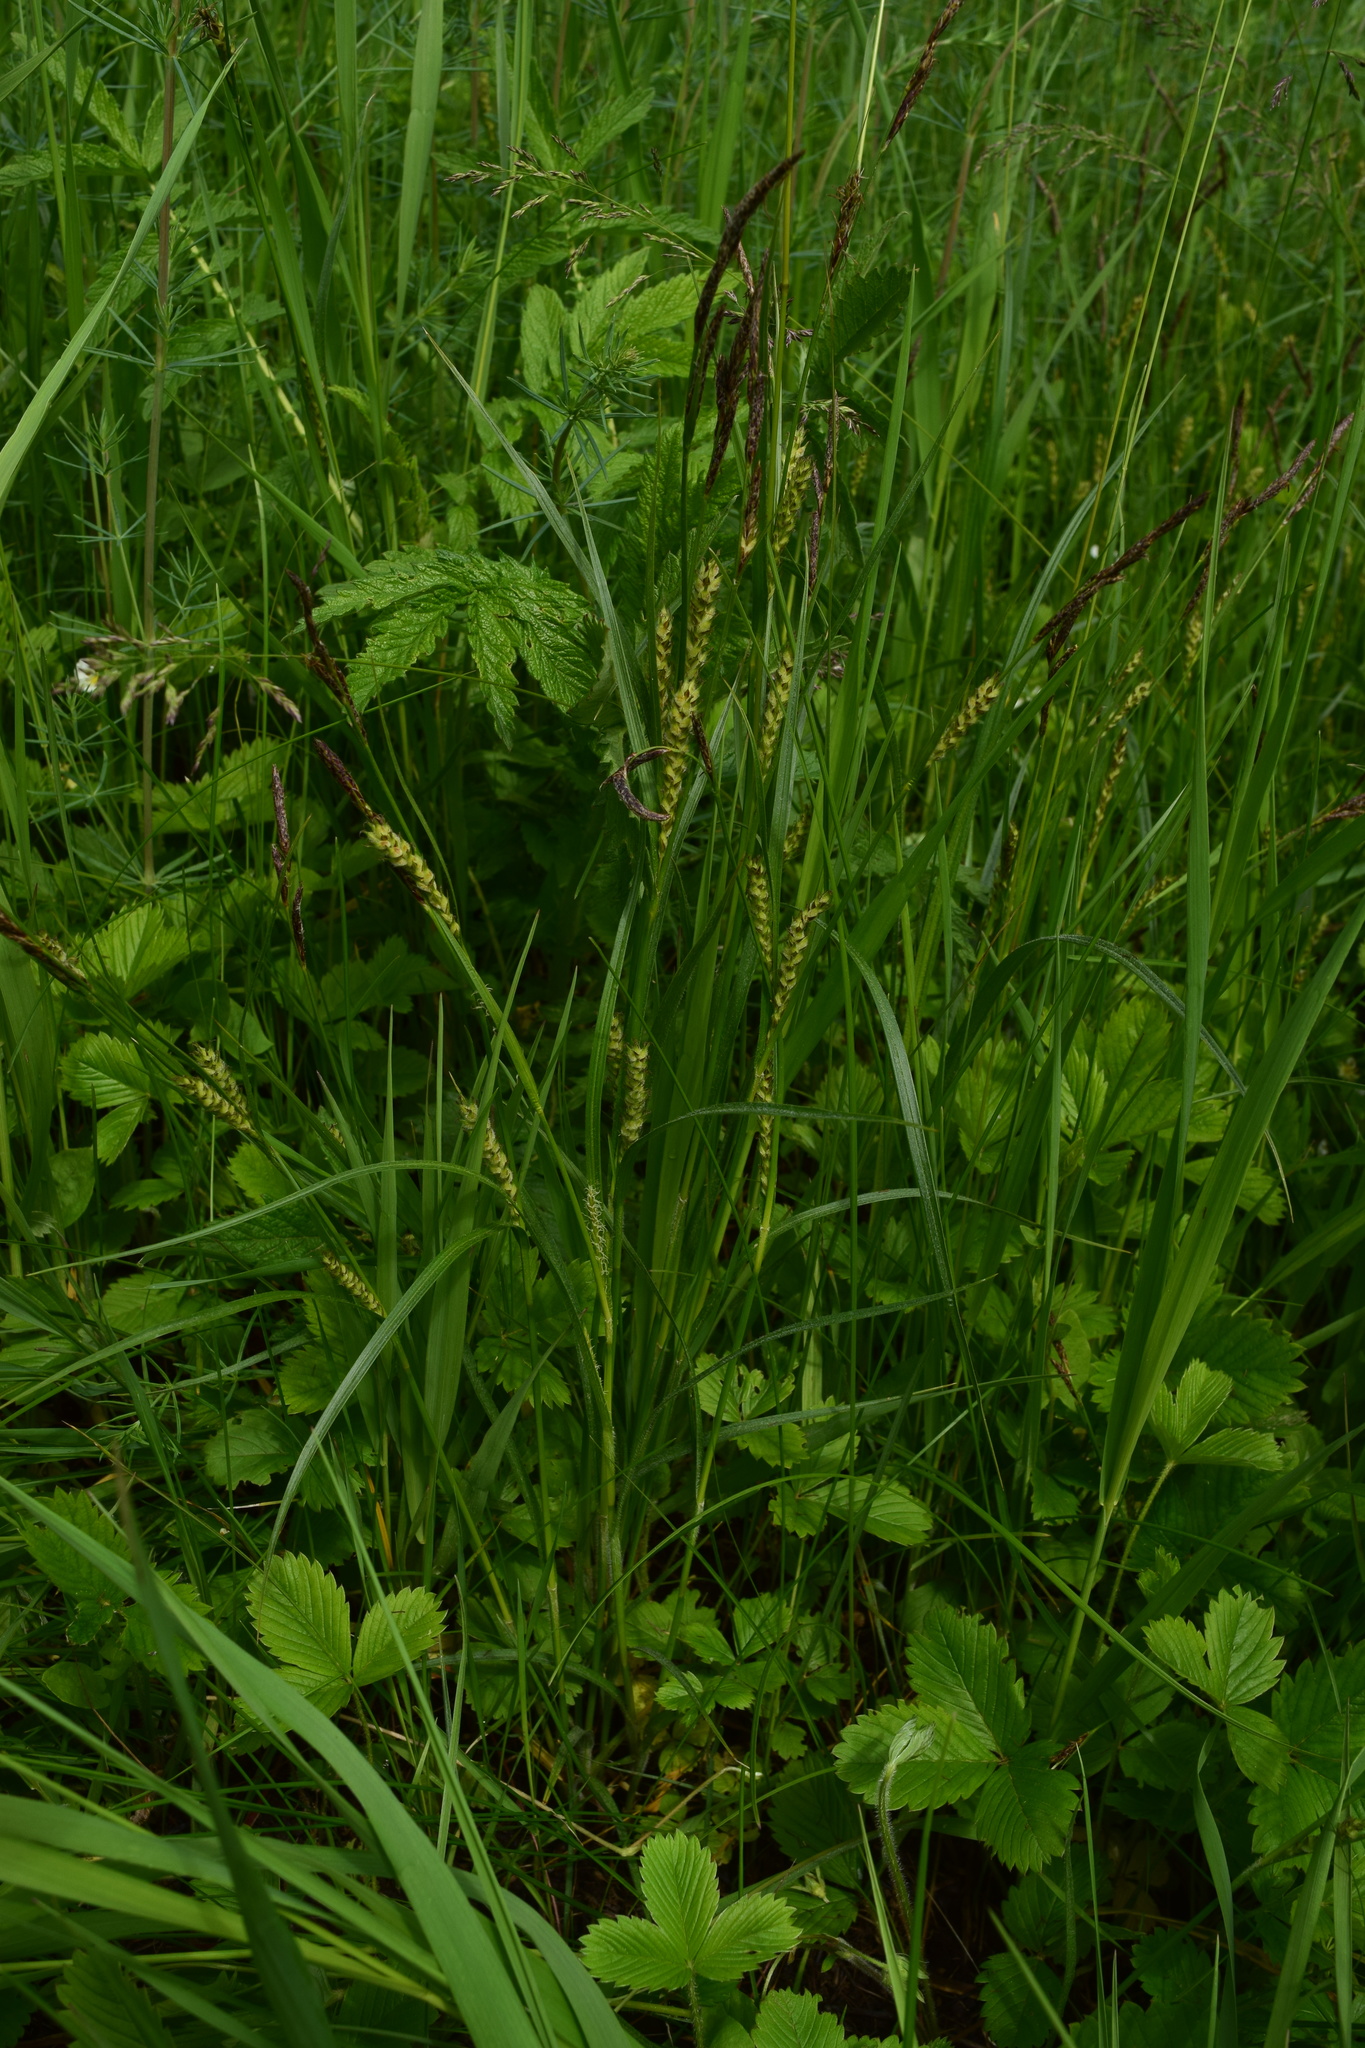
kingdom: Plantae
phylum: Tracheophyta
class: Liliopsida
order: Poales
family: Cyperaceae
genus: Carex
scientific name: Carex hirta
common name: Hairy sedge
